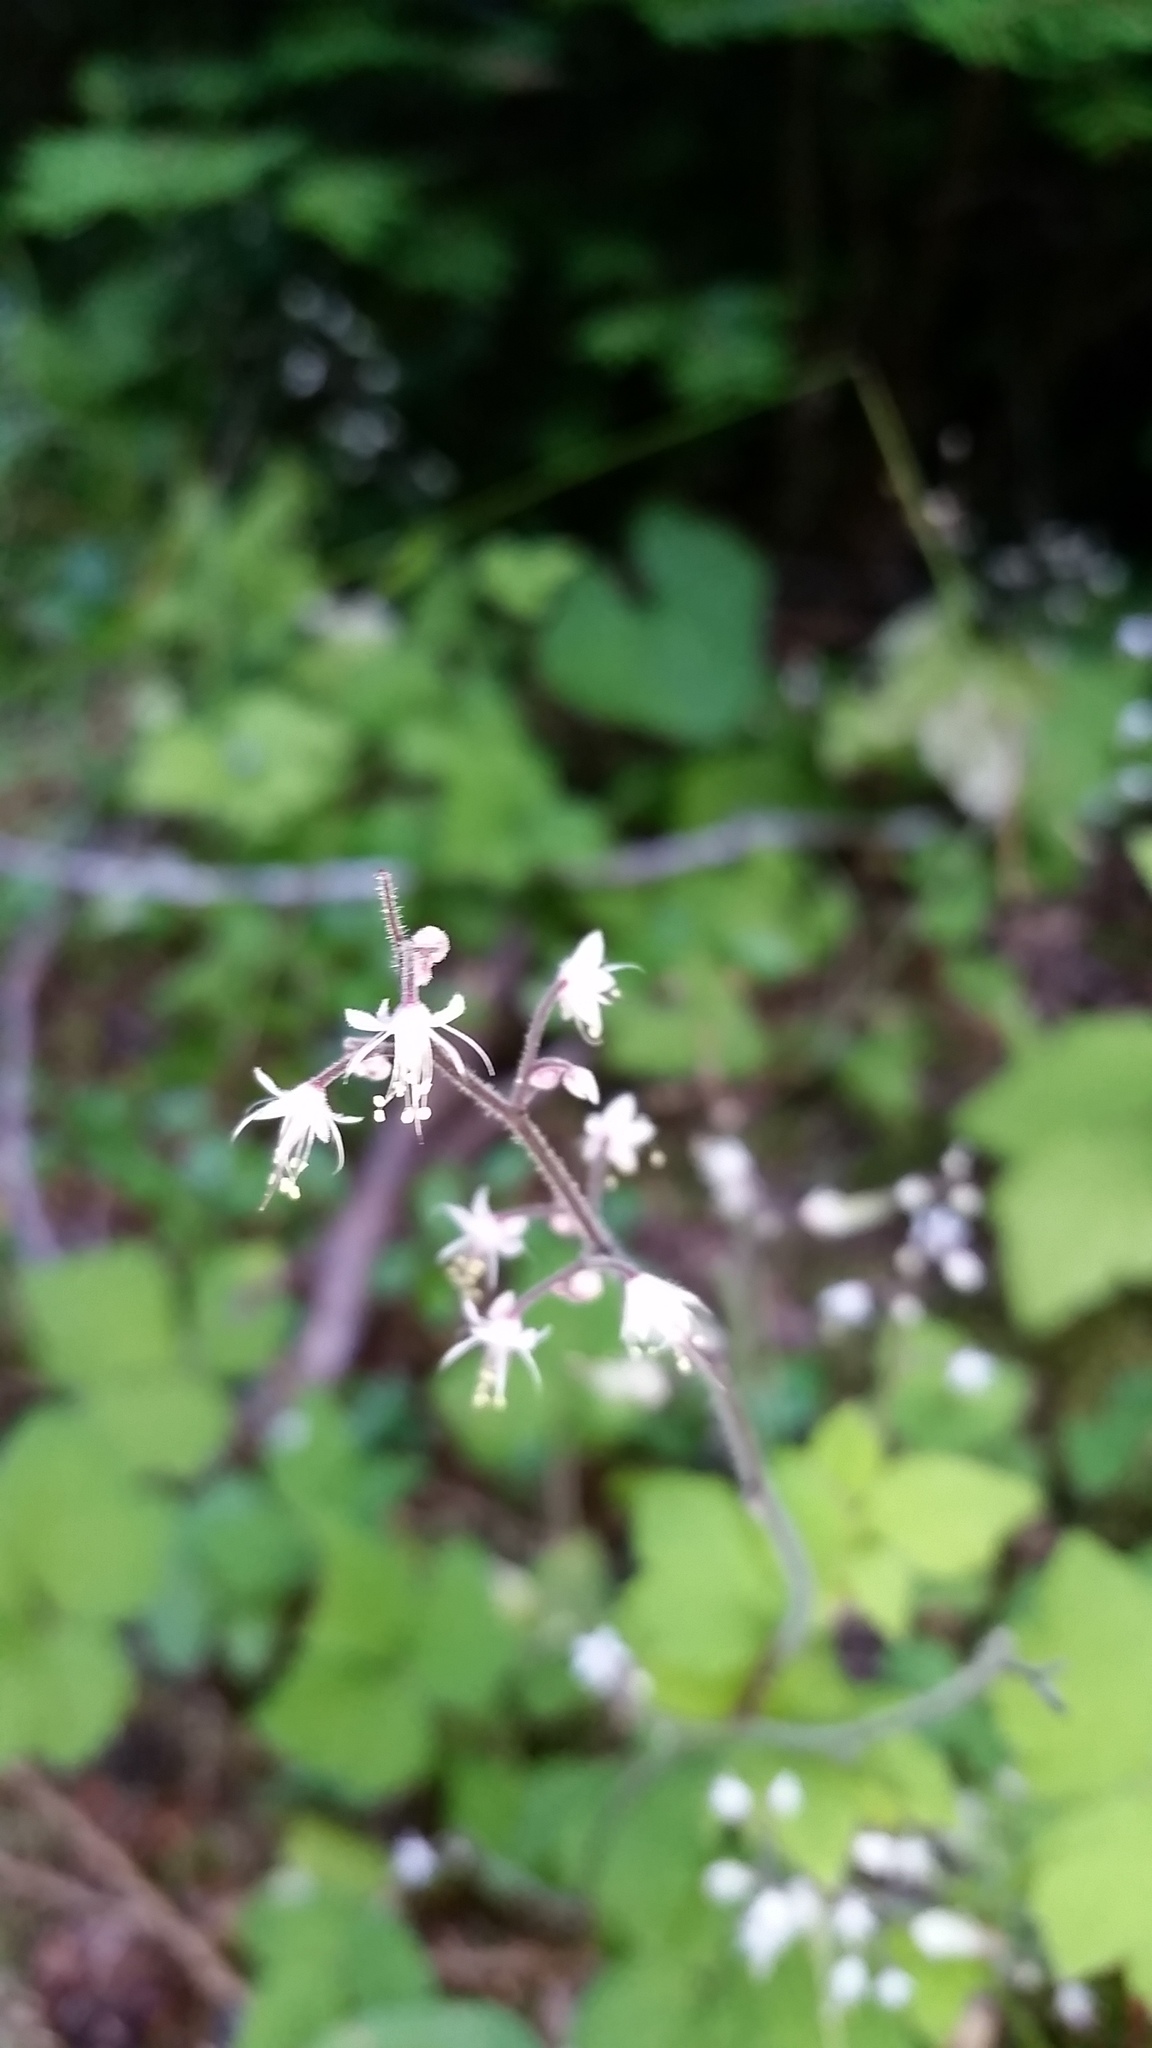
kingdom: Plantae
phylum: Tracheophyta
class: Magnoliopsida
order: Saxifragales
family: Saxifragaceae
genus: Tiarella
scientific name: Tiarella trifoliata
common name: Sugar-scoop
